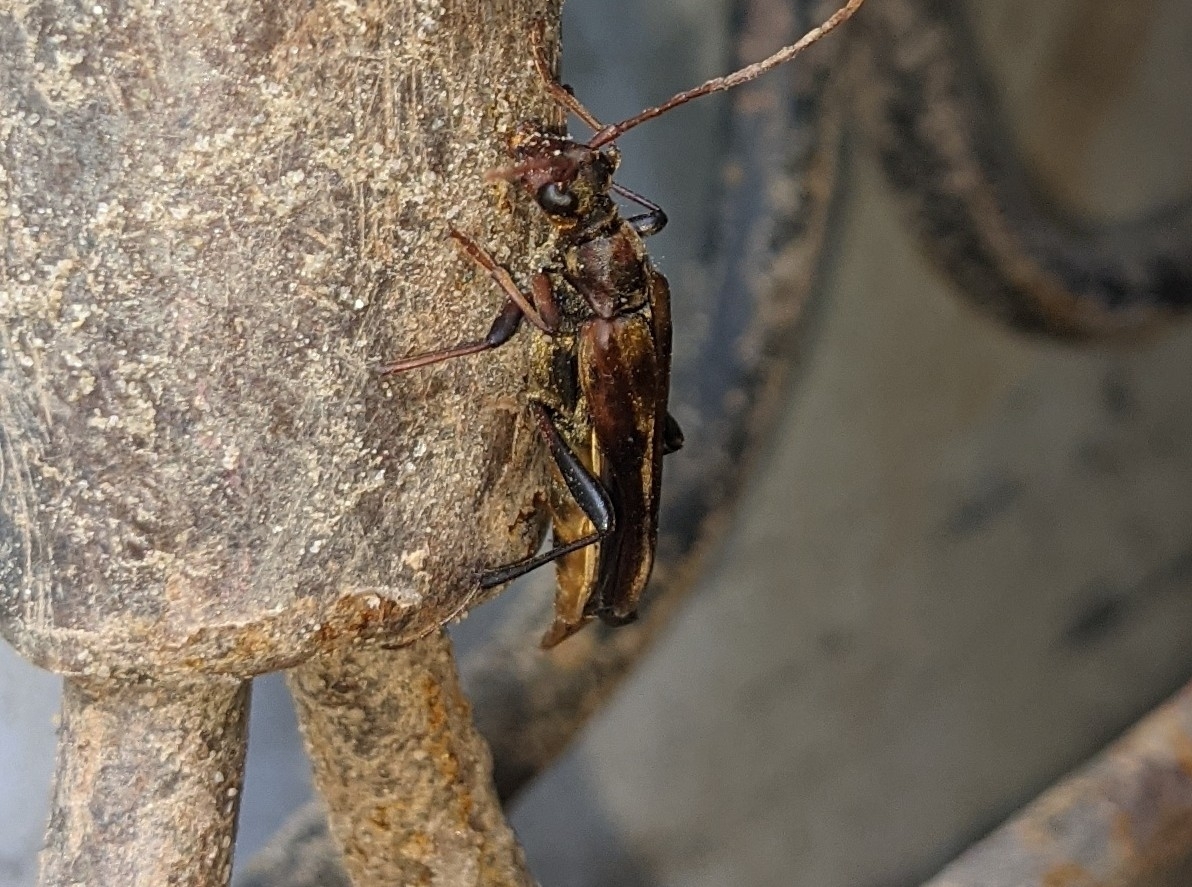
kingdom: Animalia
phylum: Arthropoda
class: Insecta
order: Coleoptera
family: Cerambycidae
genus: Bellamira
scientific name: Bellamira scalaris
